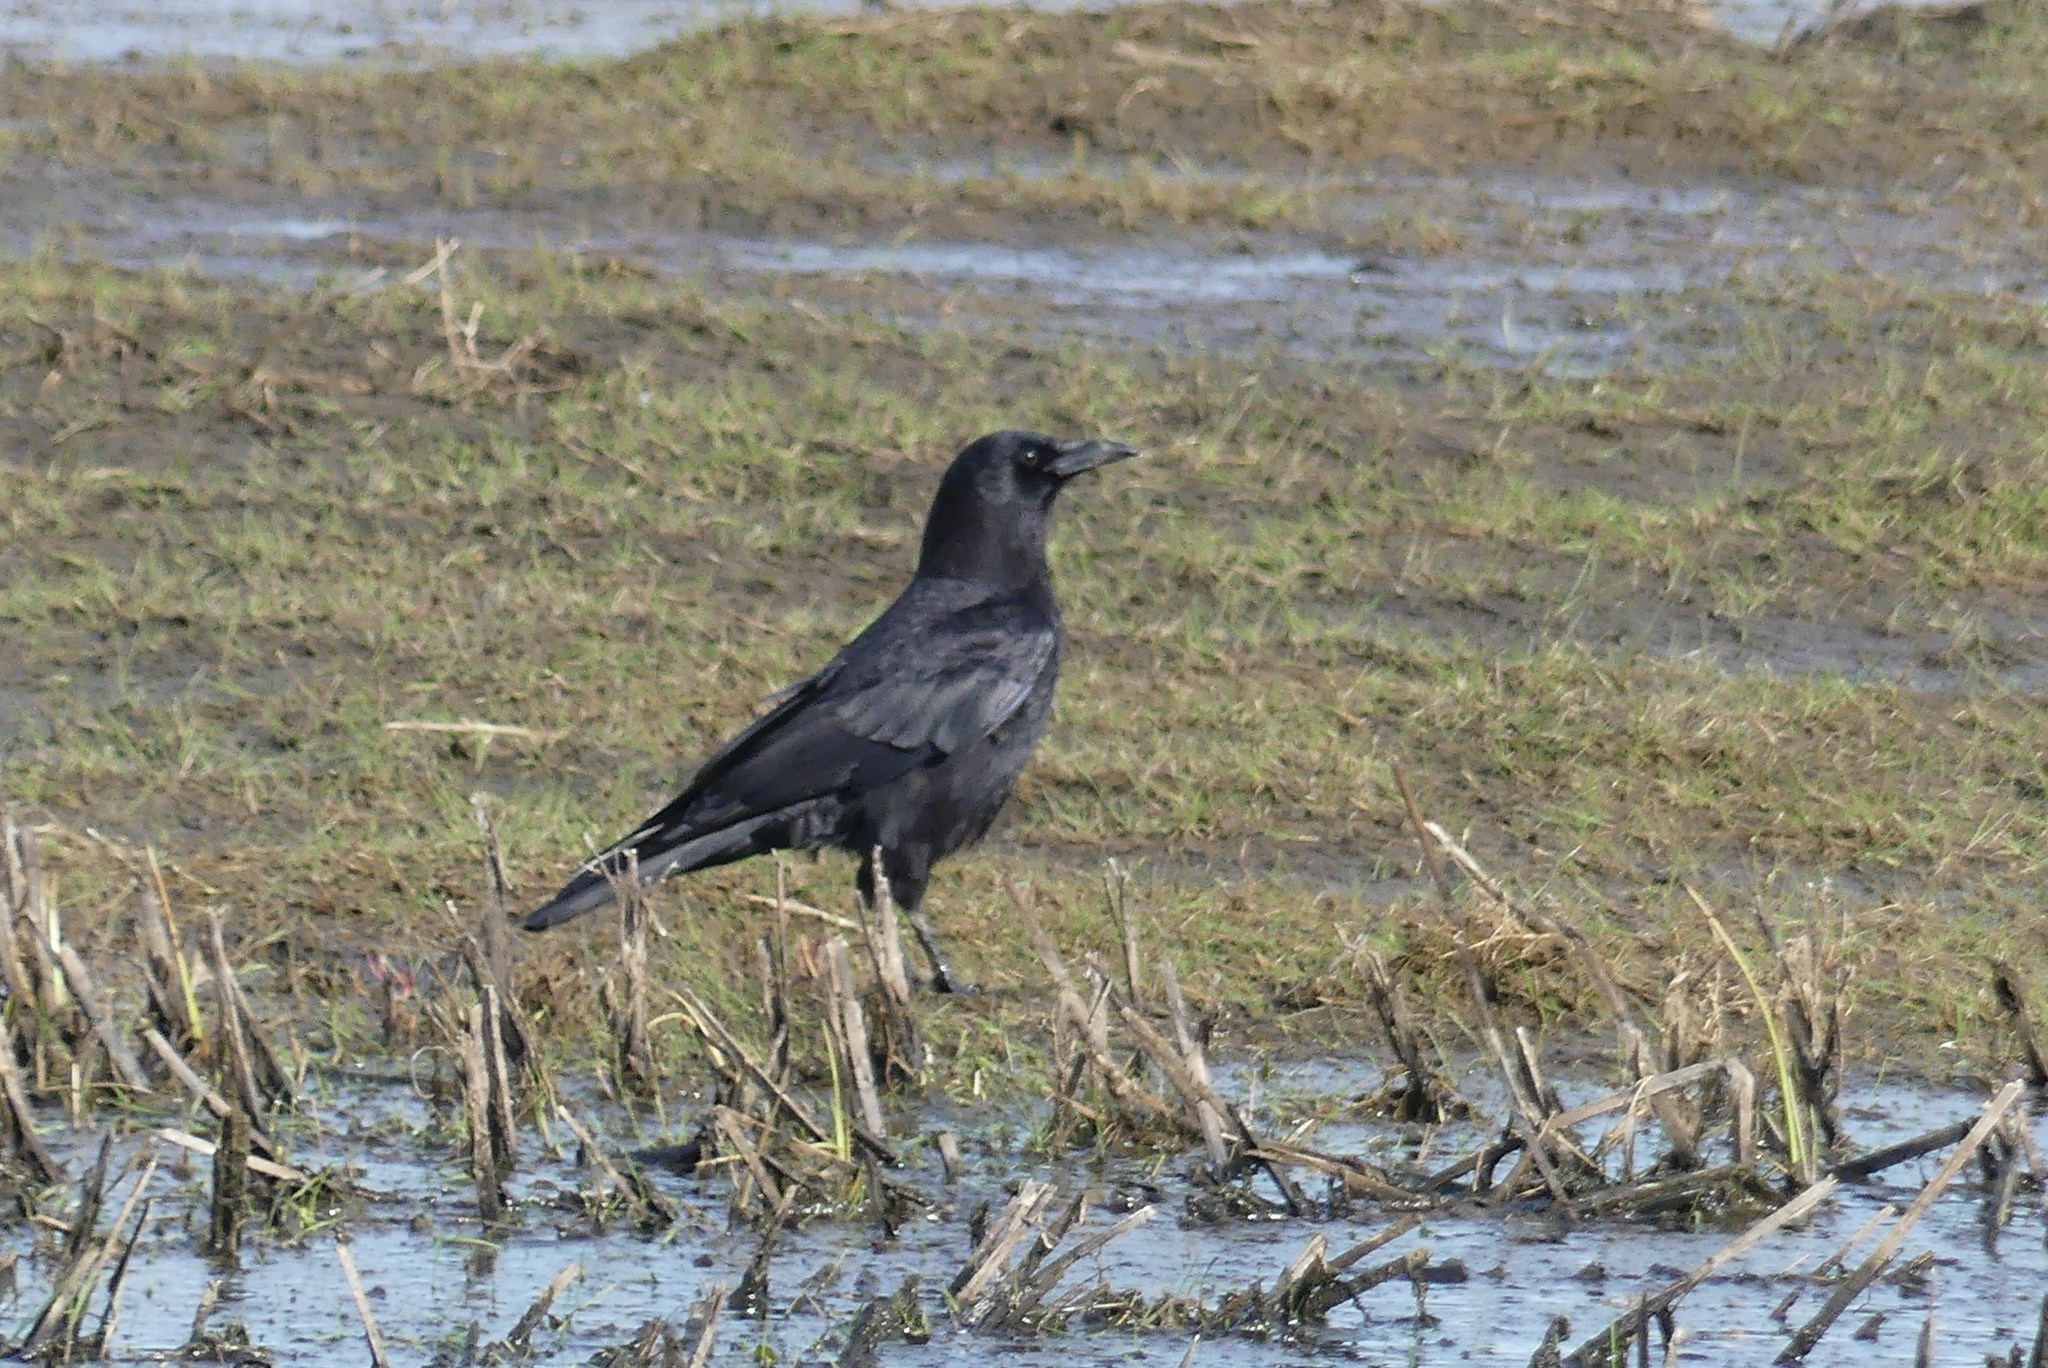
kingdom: Animalia
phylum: Chordata
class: Aves
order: Passeriformes
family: Corvidae
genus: Corvus
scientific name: Corvus brachyrhynchos
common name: American crow
